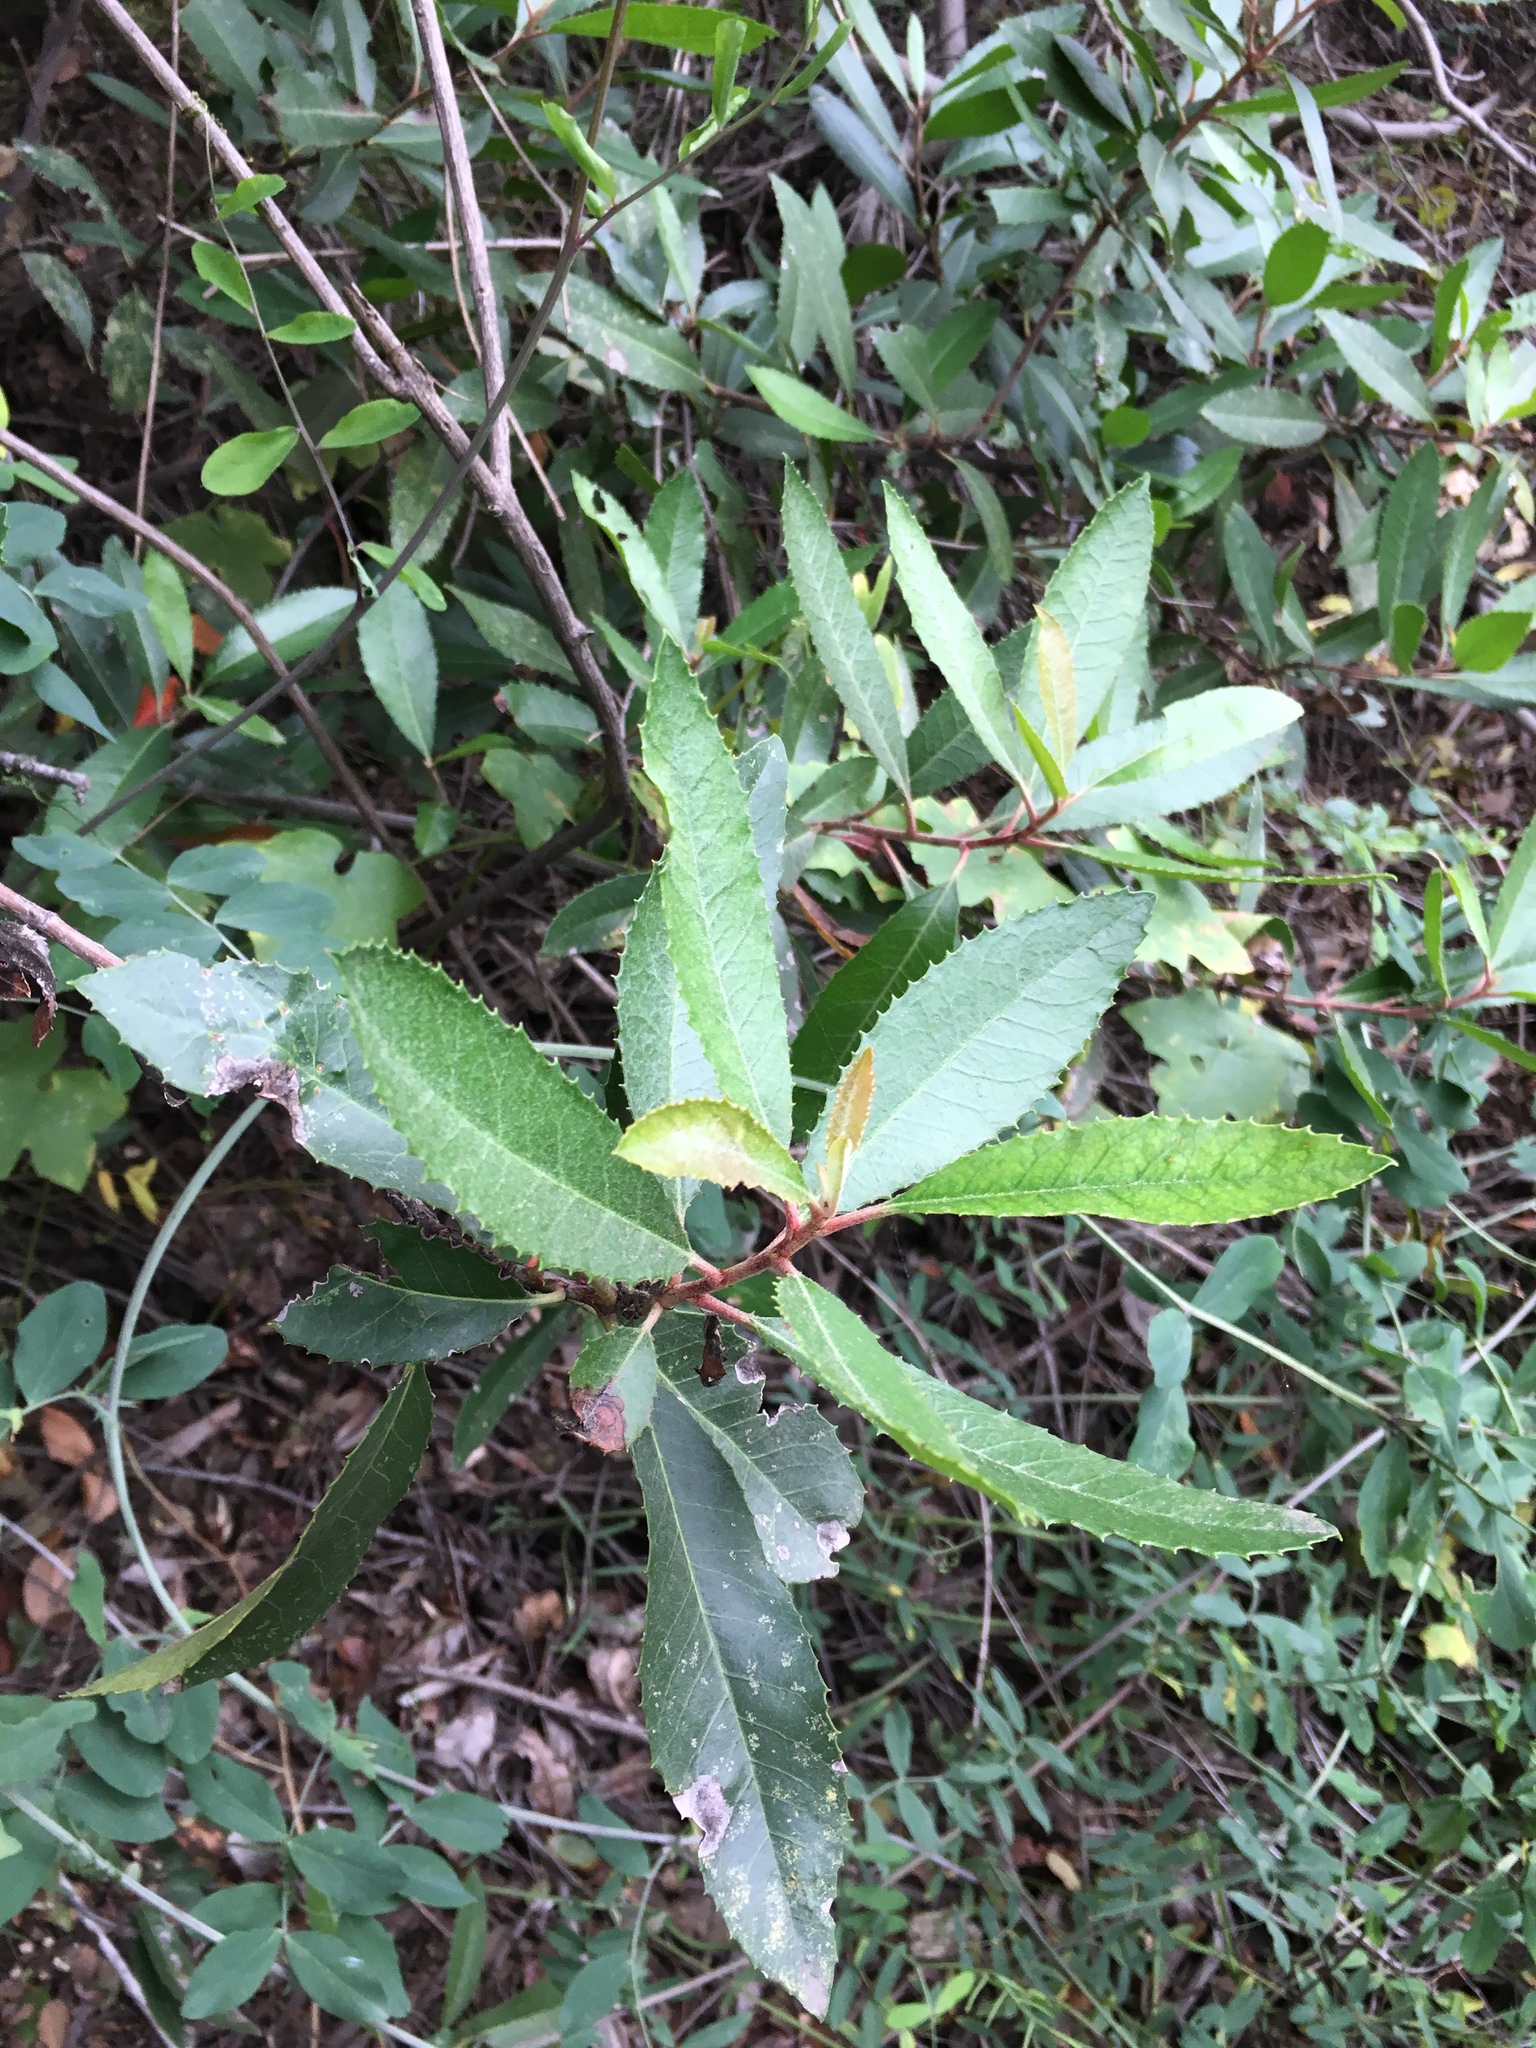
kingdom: Plantae
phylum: Tracheophyta
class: Magnoliopsida
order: Rosales
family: Rosaceae
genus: Heteromeles
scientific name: Heteromeles arbutifolia
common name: California-holly
